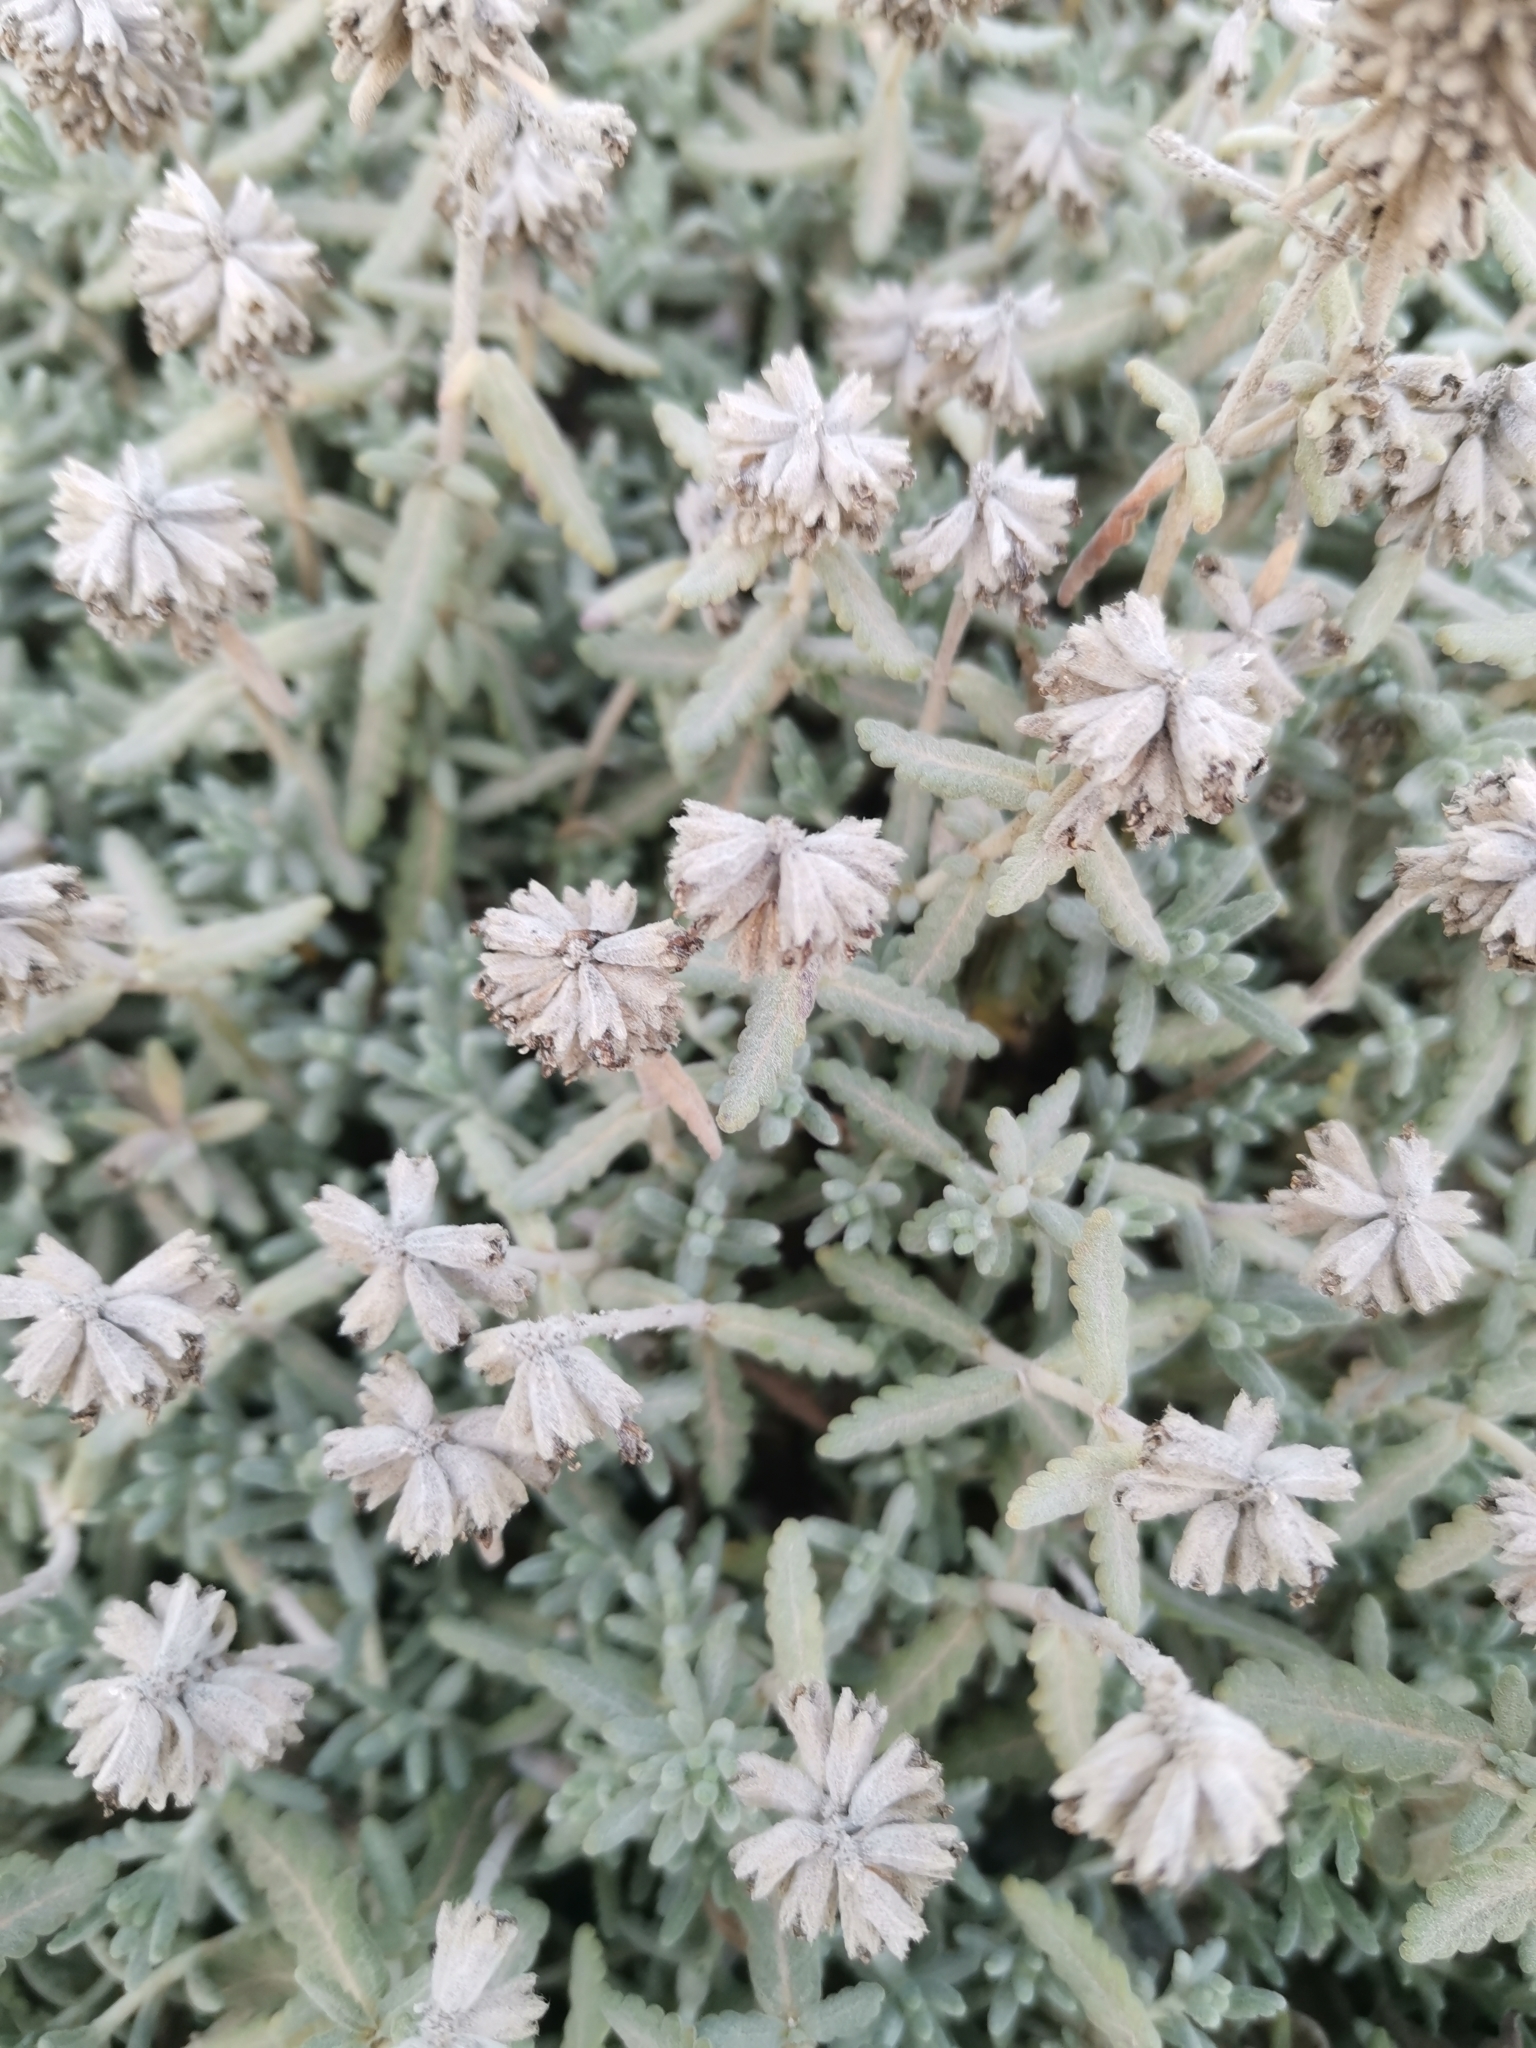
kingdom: Plantae
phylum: Tracheophyta
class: Magnoliopsida
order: Lamiales
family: Lamiaceae
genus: Teucrium
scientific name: Teucrium polium
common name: Poley
